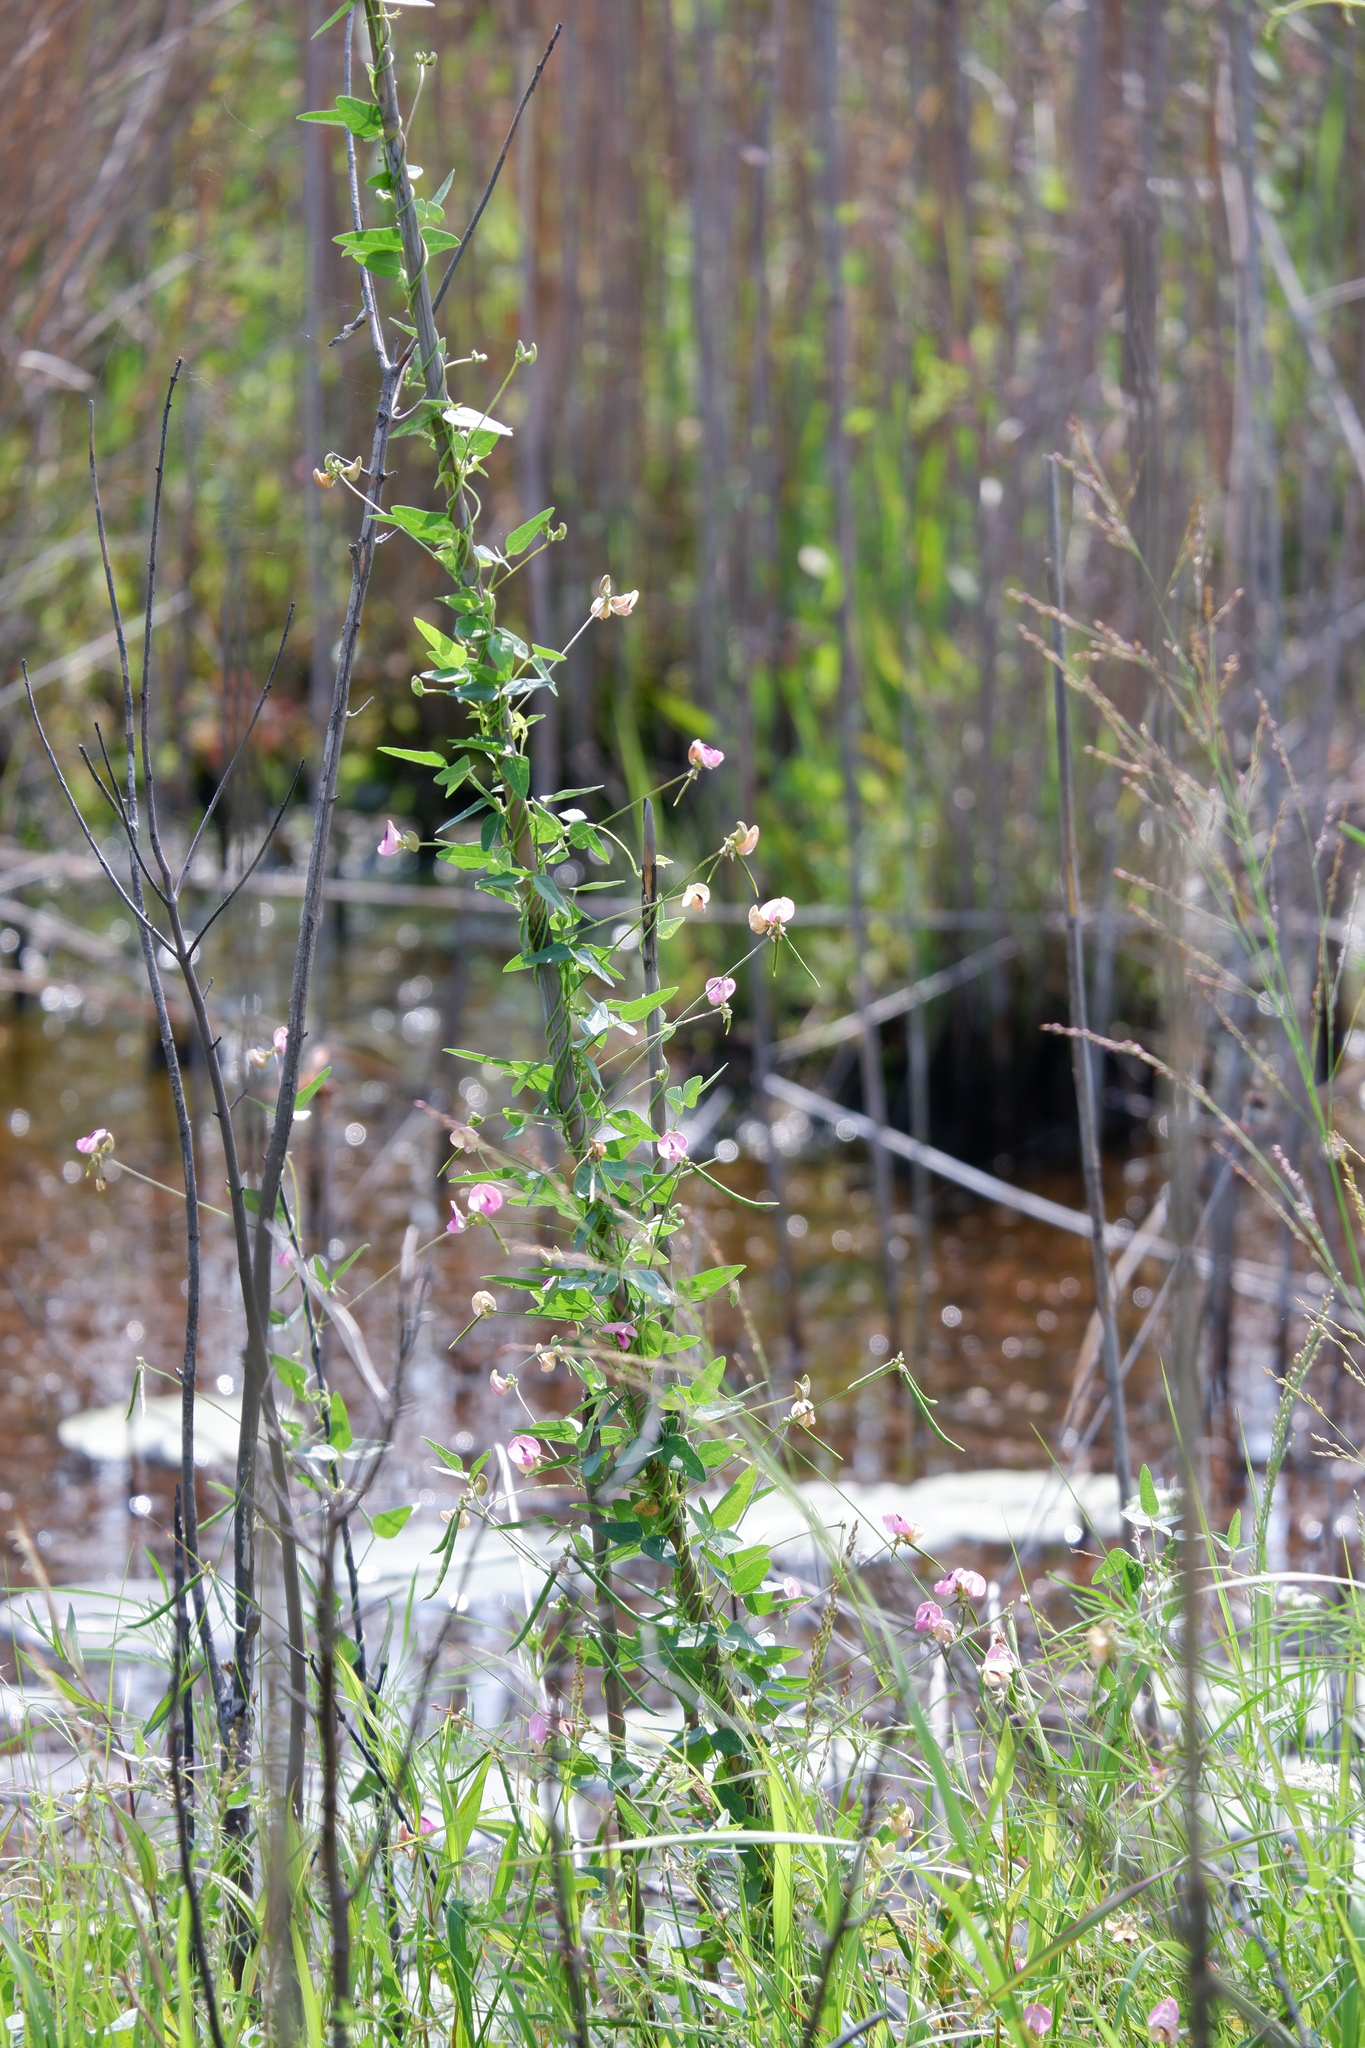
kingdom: Plantae
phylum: Tracheophyta
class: Magnoliopsida
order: Fabales
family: Fabaceae
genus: Strophostyles
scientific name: Strophostyles umbellata
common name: Perennial wild bean
